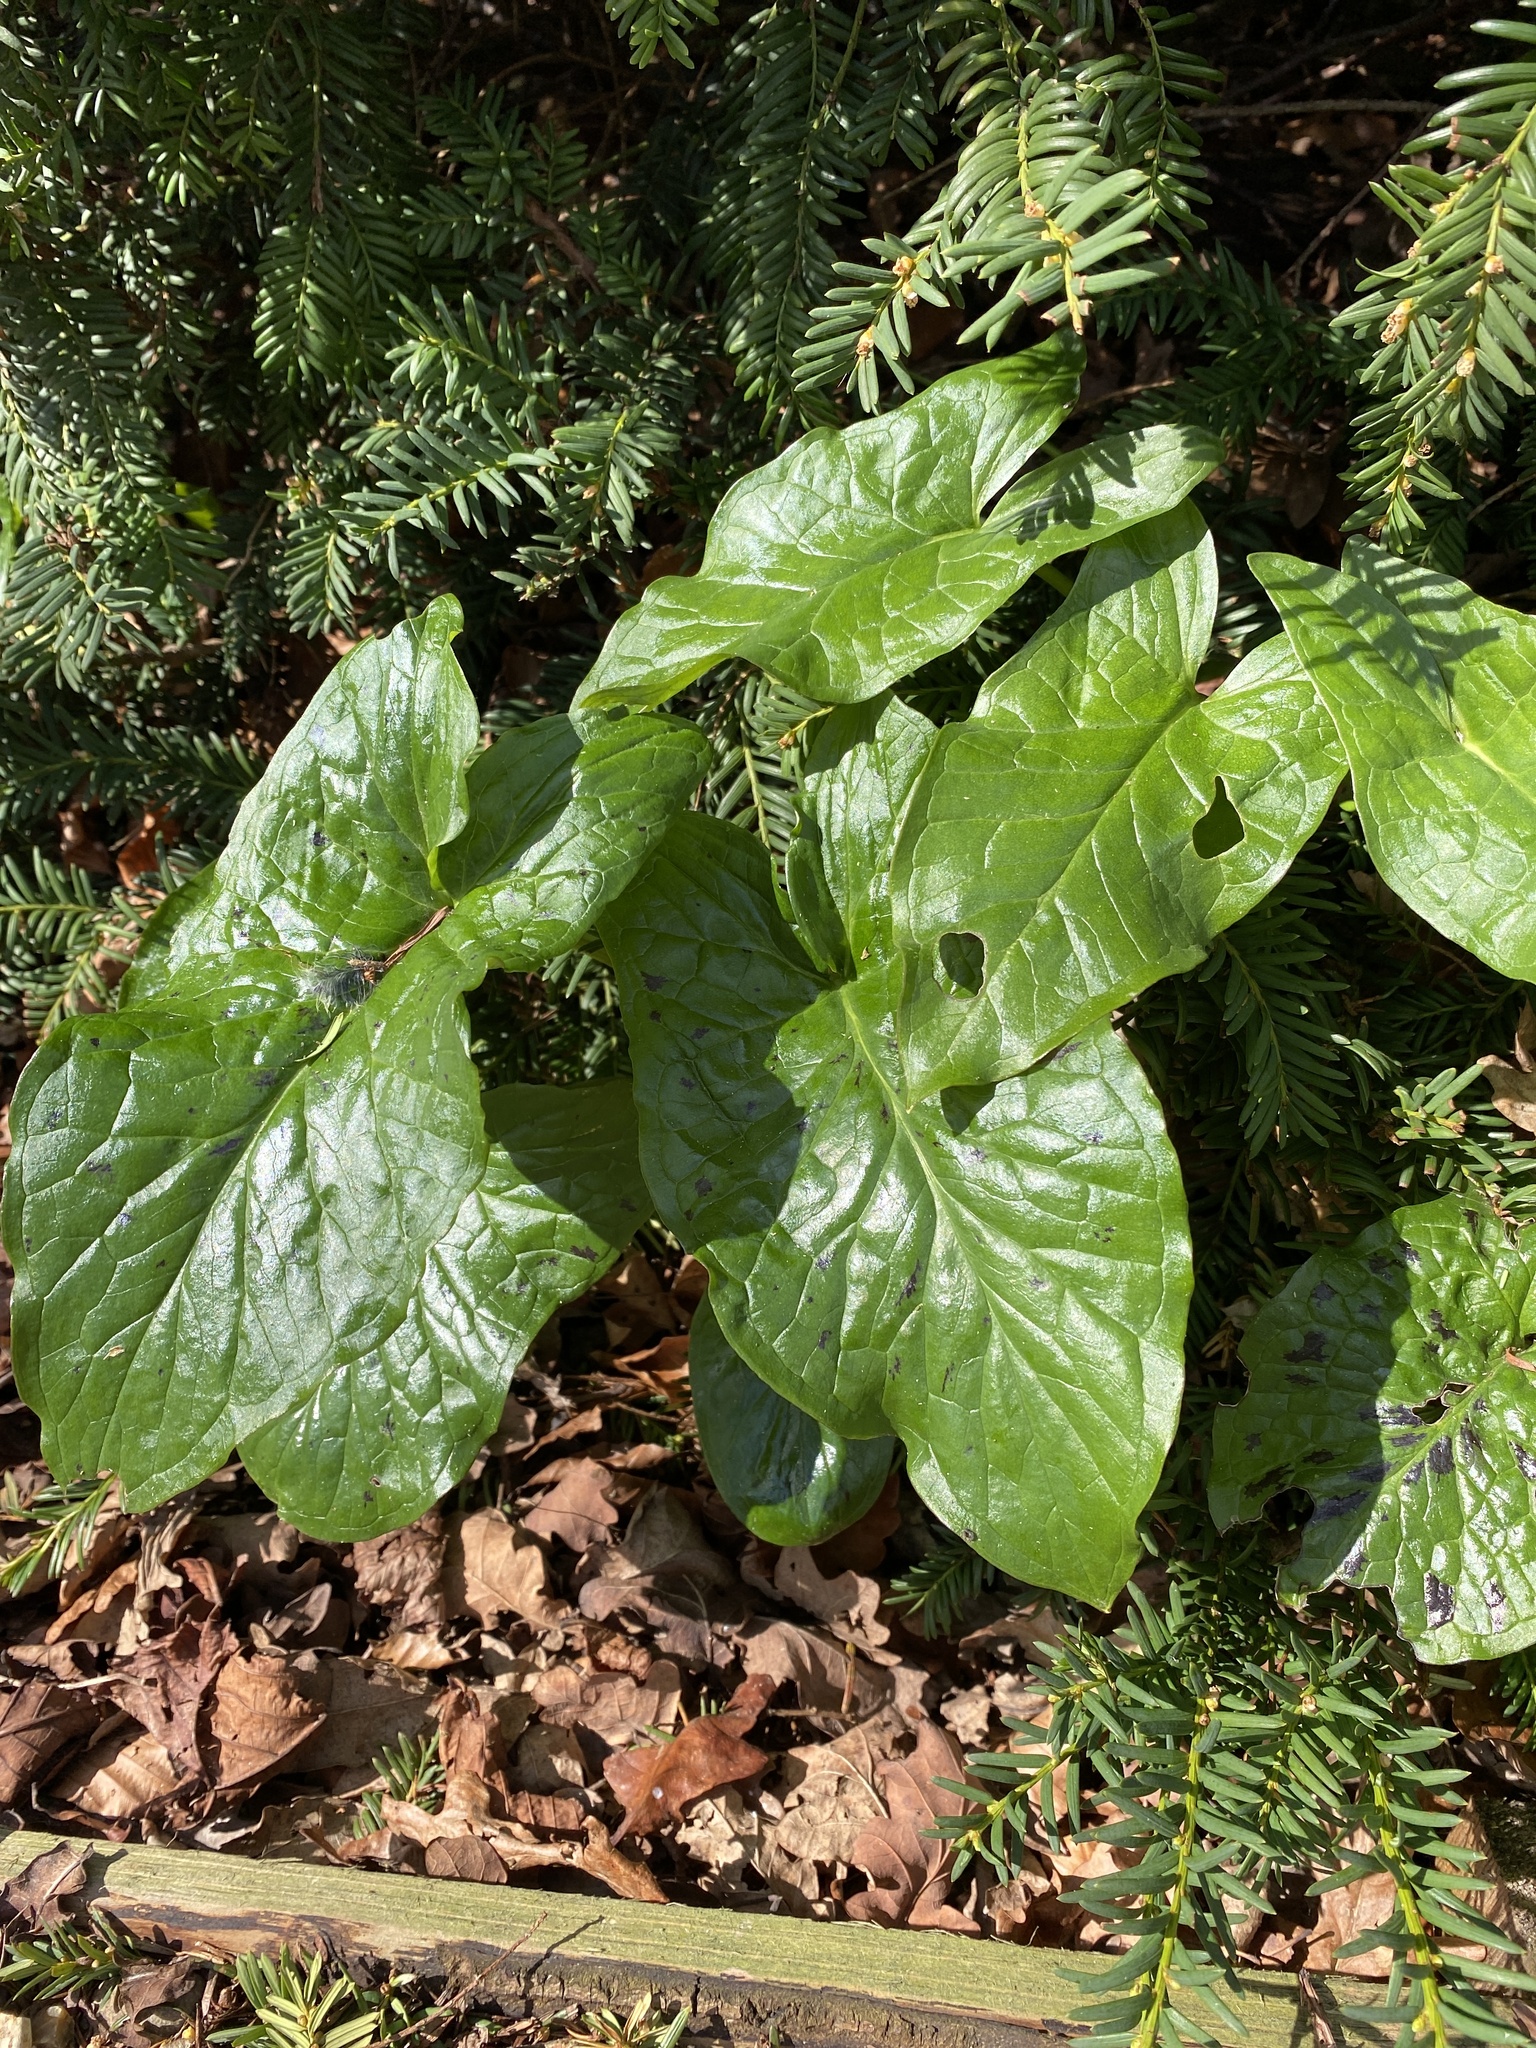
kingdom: Plantae
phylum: Tracheophyta
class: Liliopsida
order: Alismatales
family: Araceae
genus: Arum
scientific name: Arum maculatum
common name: Lords-and-ladies
